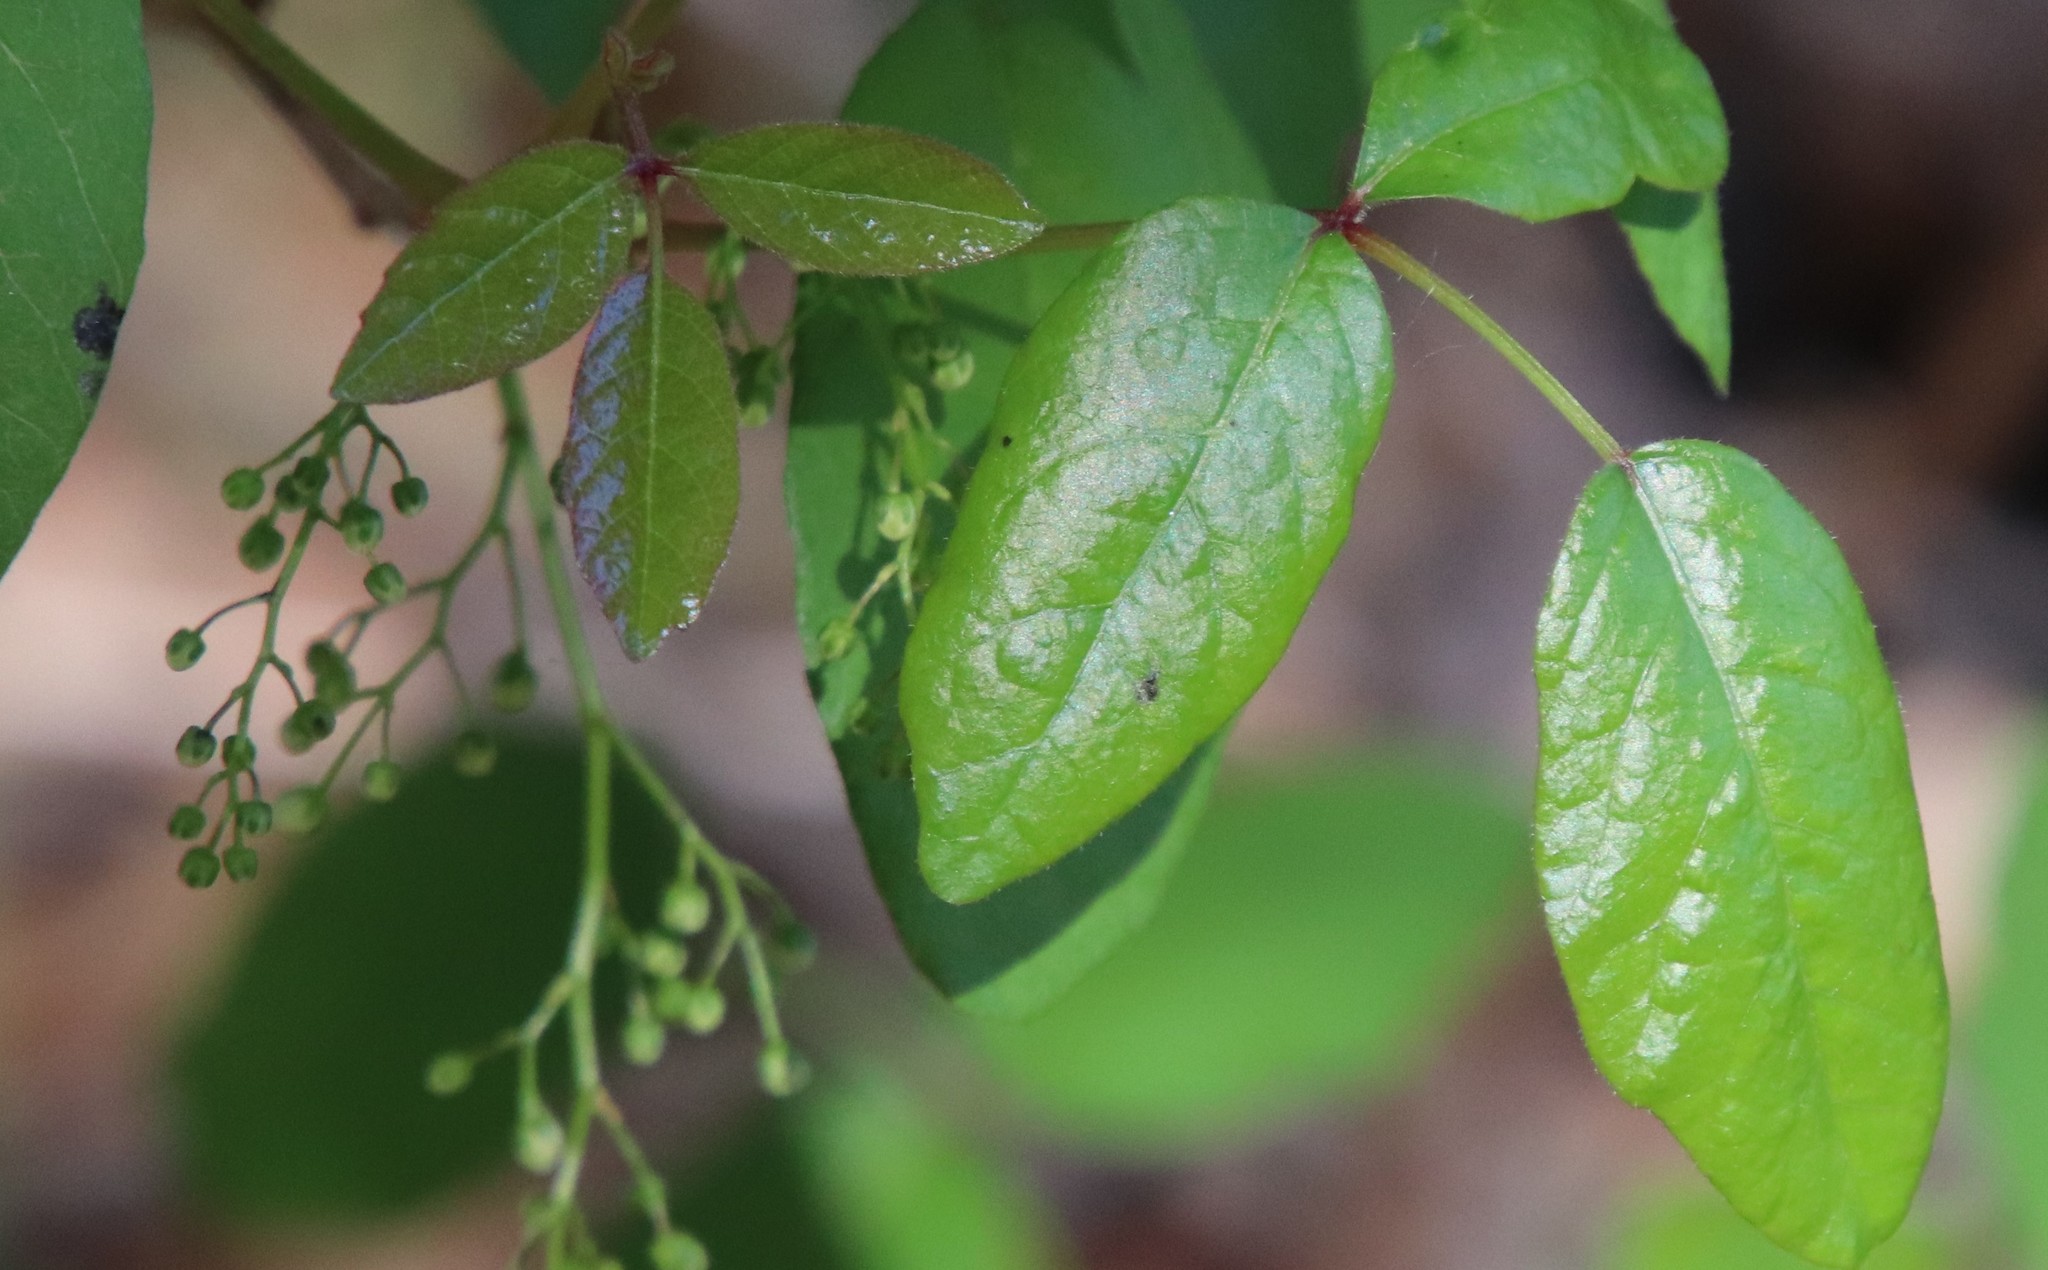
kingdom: Plantae
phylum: Tracheophyta
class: Magnoliopsida
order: Sapindales
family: Anacardiaceae
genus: Toxicodendron
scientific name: Toxicodendron diversilobum
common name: Pacific poison-oak
